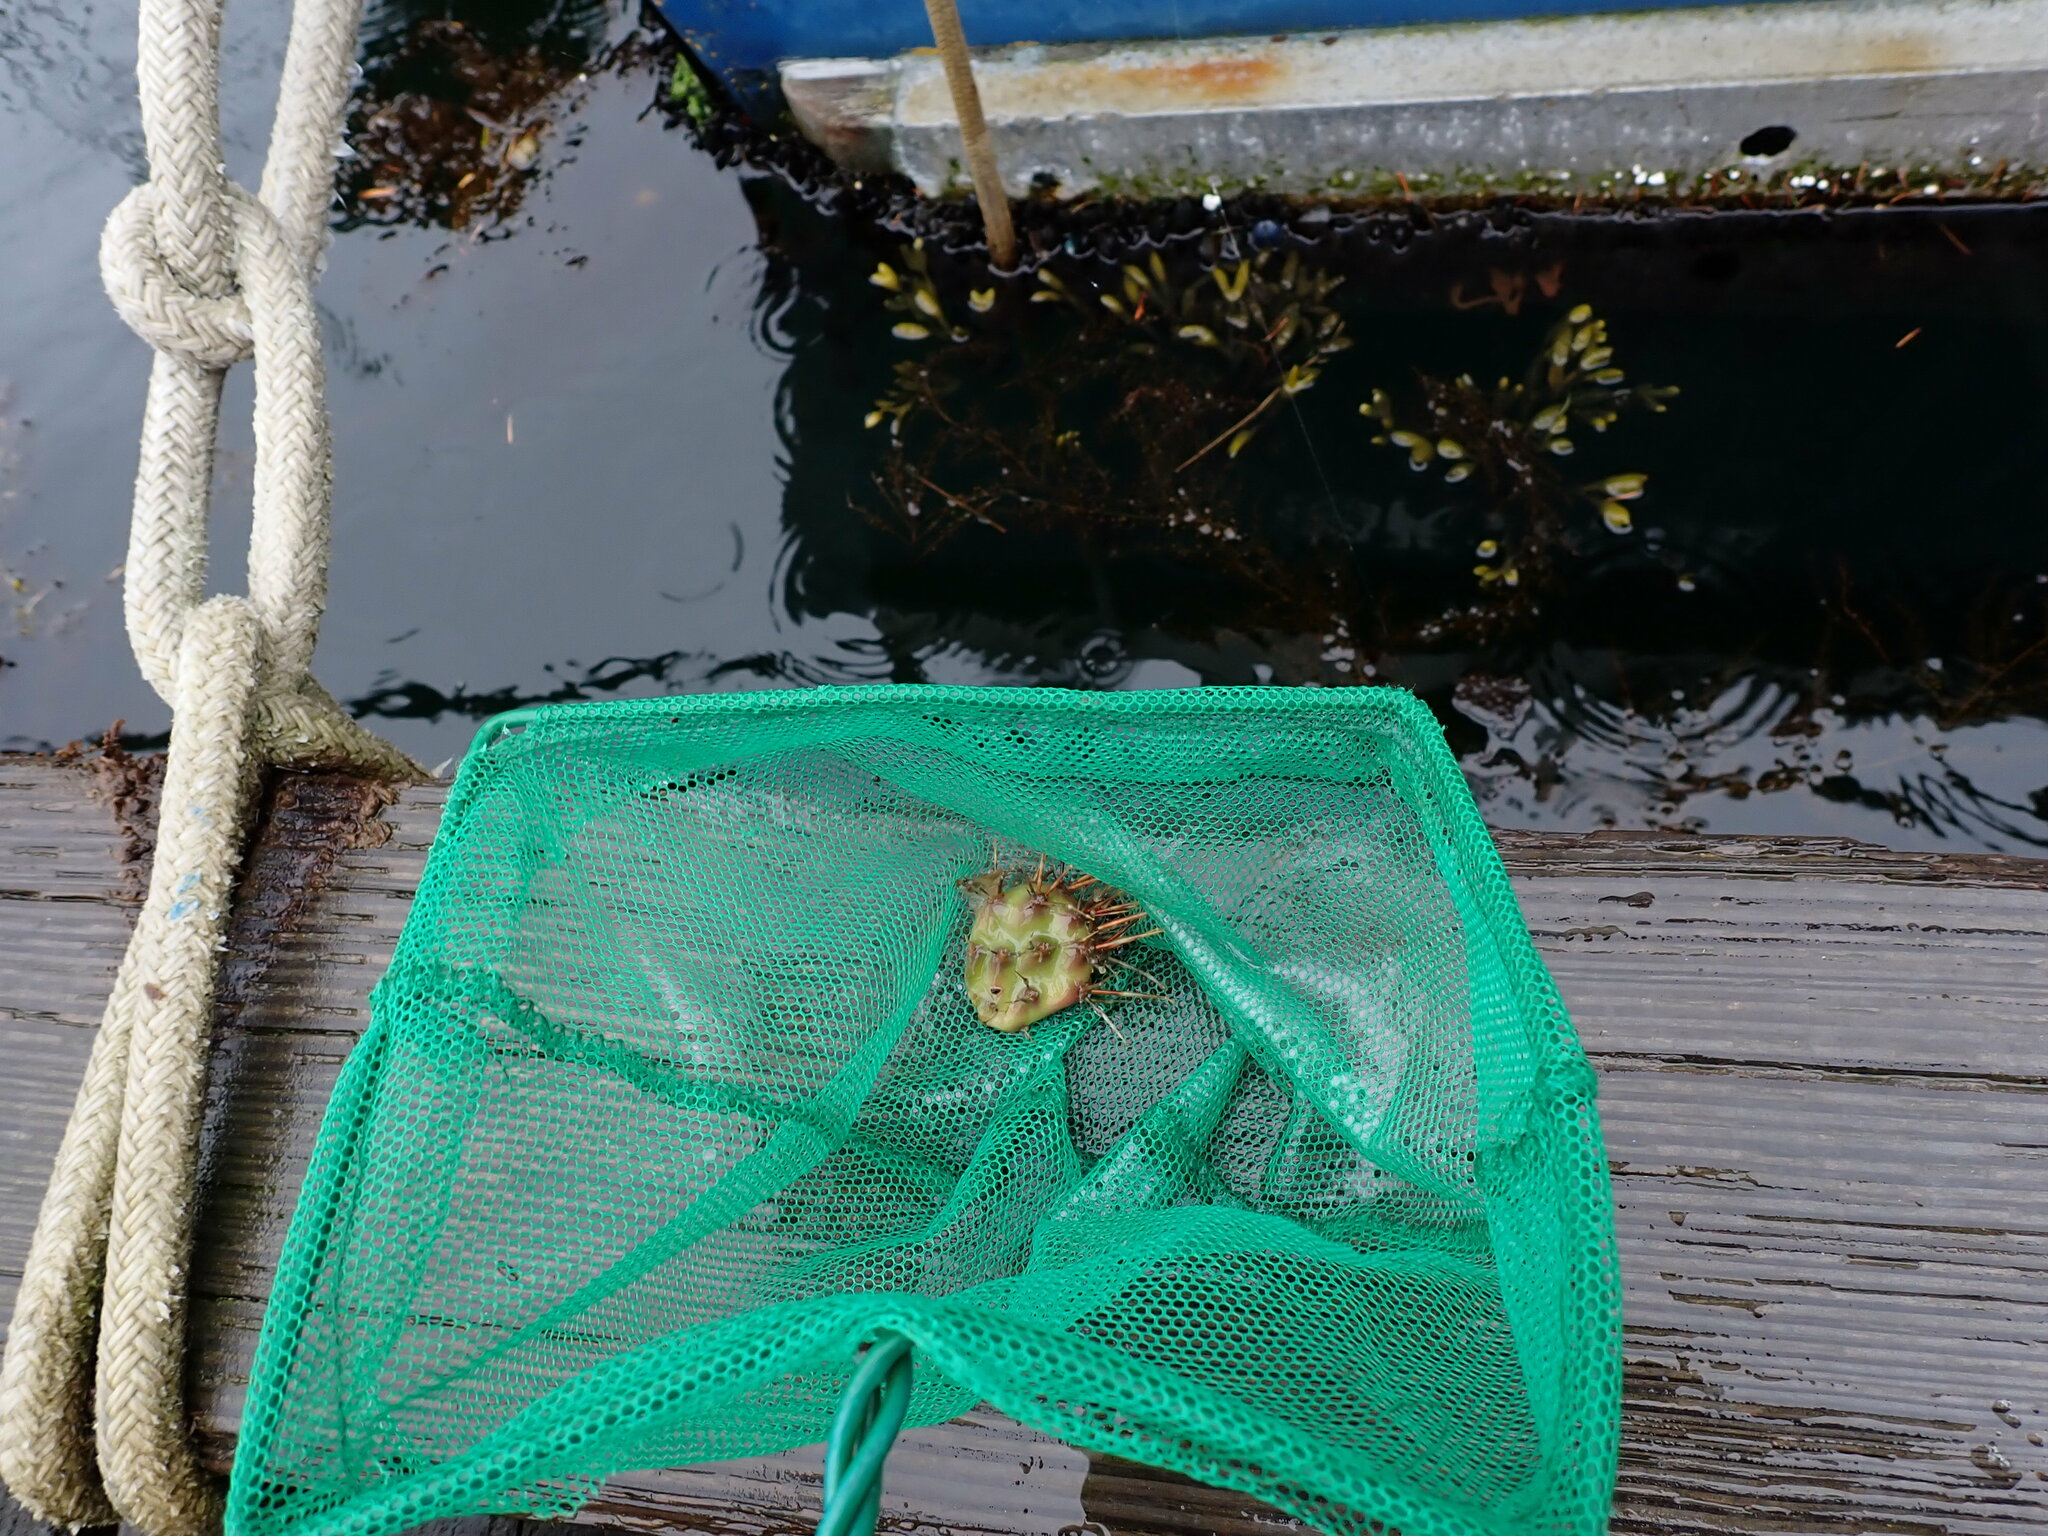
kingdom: Plantae
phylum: Tracheophyta
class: Magnoliopsida
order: Caryophyllales
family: Cactaceae
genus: Opuntia
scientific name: Opuntia fragilis
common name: Brittle cactus
